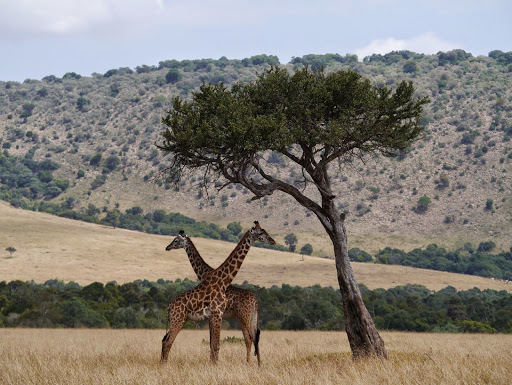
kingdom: Animalia
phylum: Chordata
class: Mammalia
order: Artiodactyla
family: Giraffidae
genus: Giraffa
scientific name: Giraffa tippelskirchi
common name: Masai giraffe
